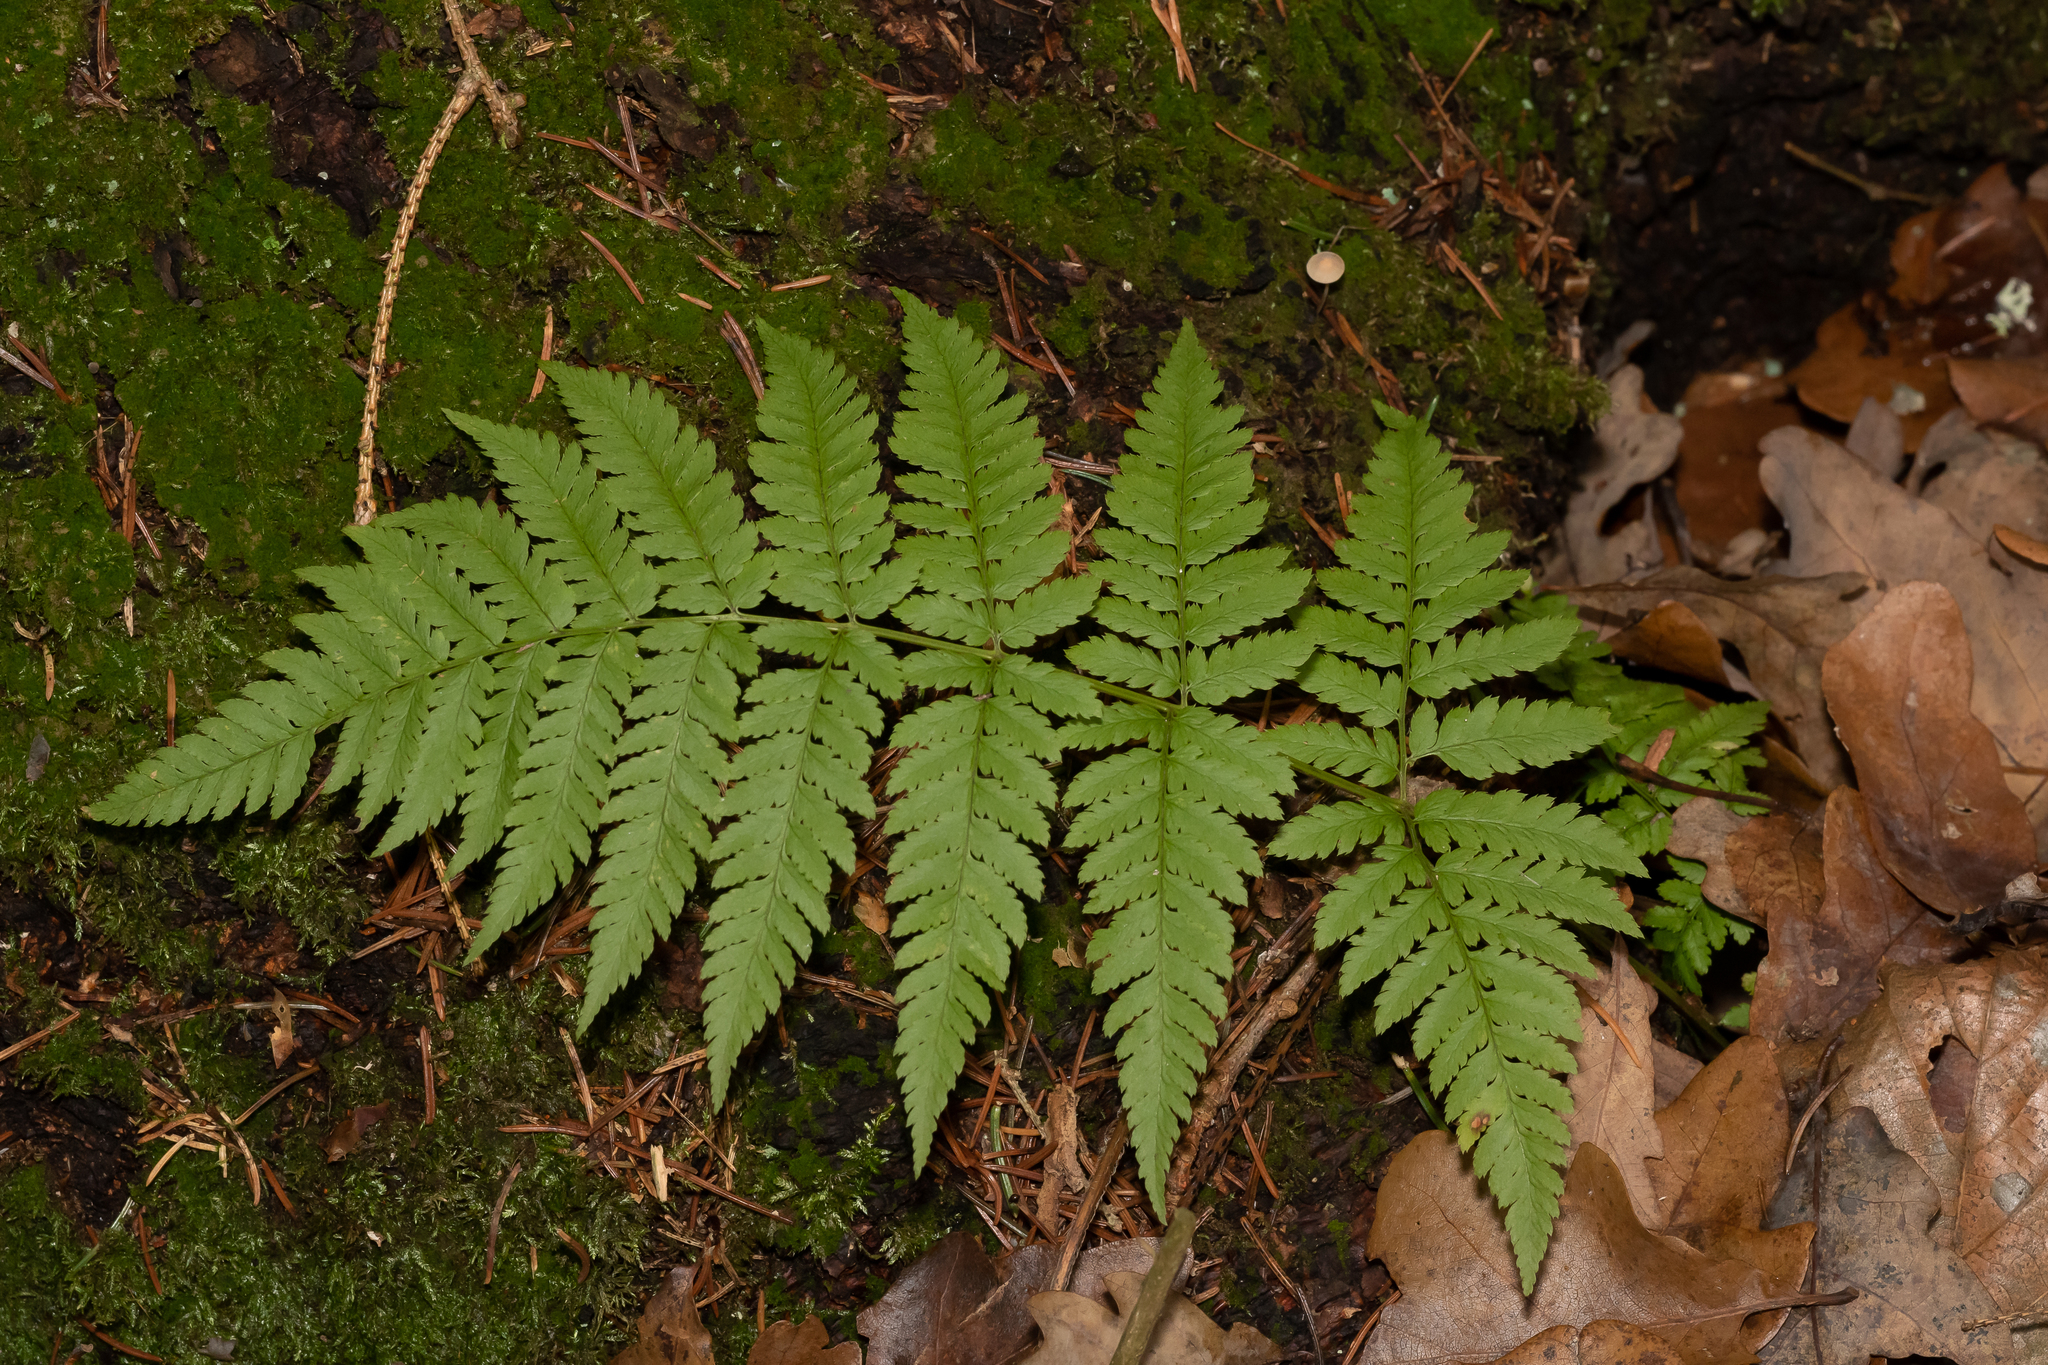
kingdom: Plantae
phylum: Tracheophyta
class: Polypodiopsida
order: Polypodiales
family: Dryopteridaceae
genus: Dryopteris
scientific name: Dryopteris carthusiana
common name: Narrow buckler-fern
